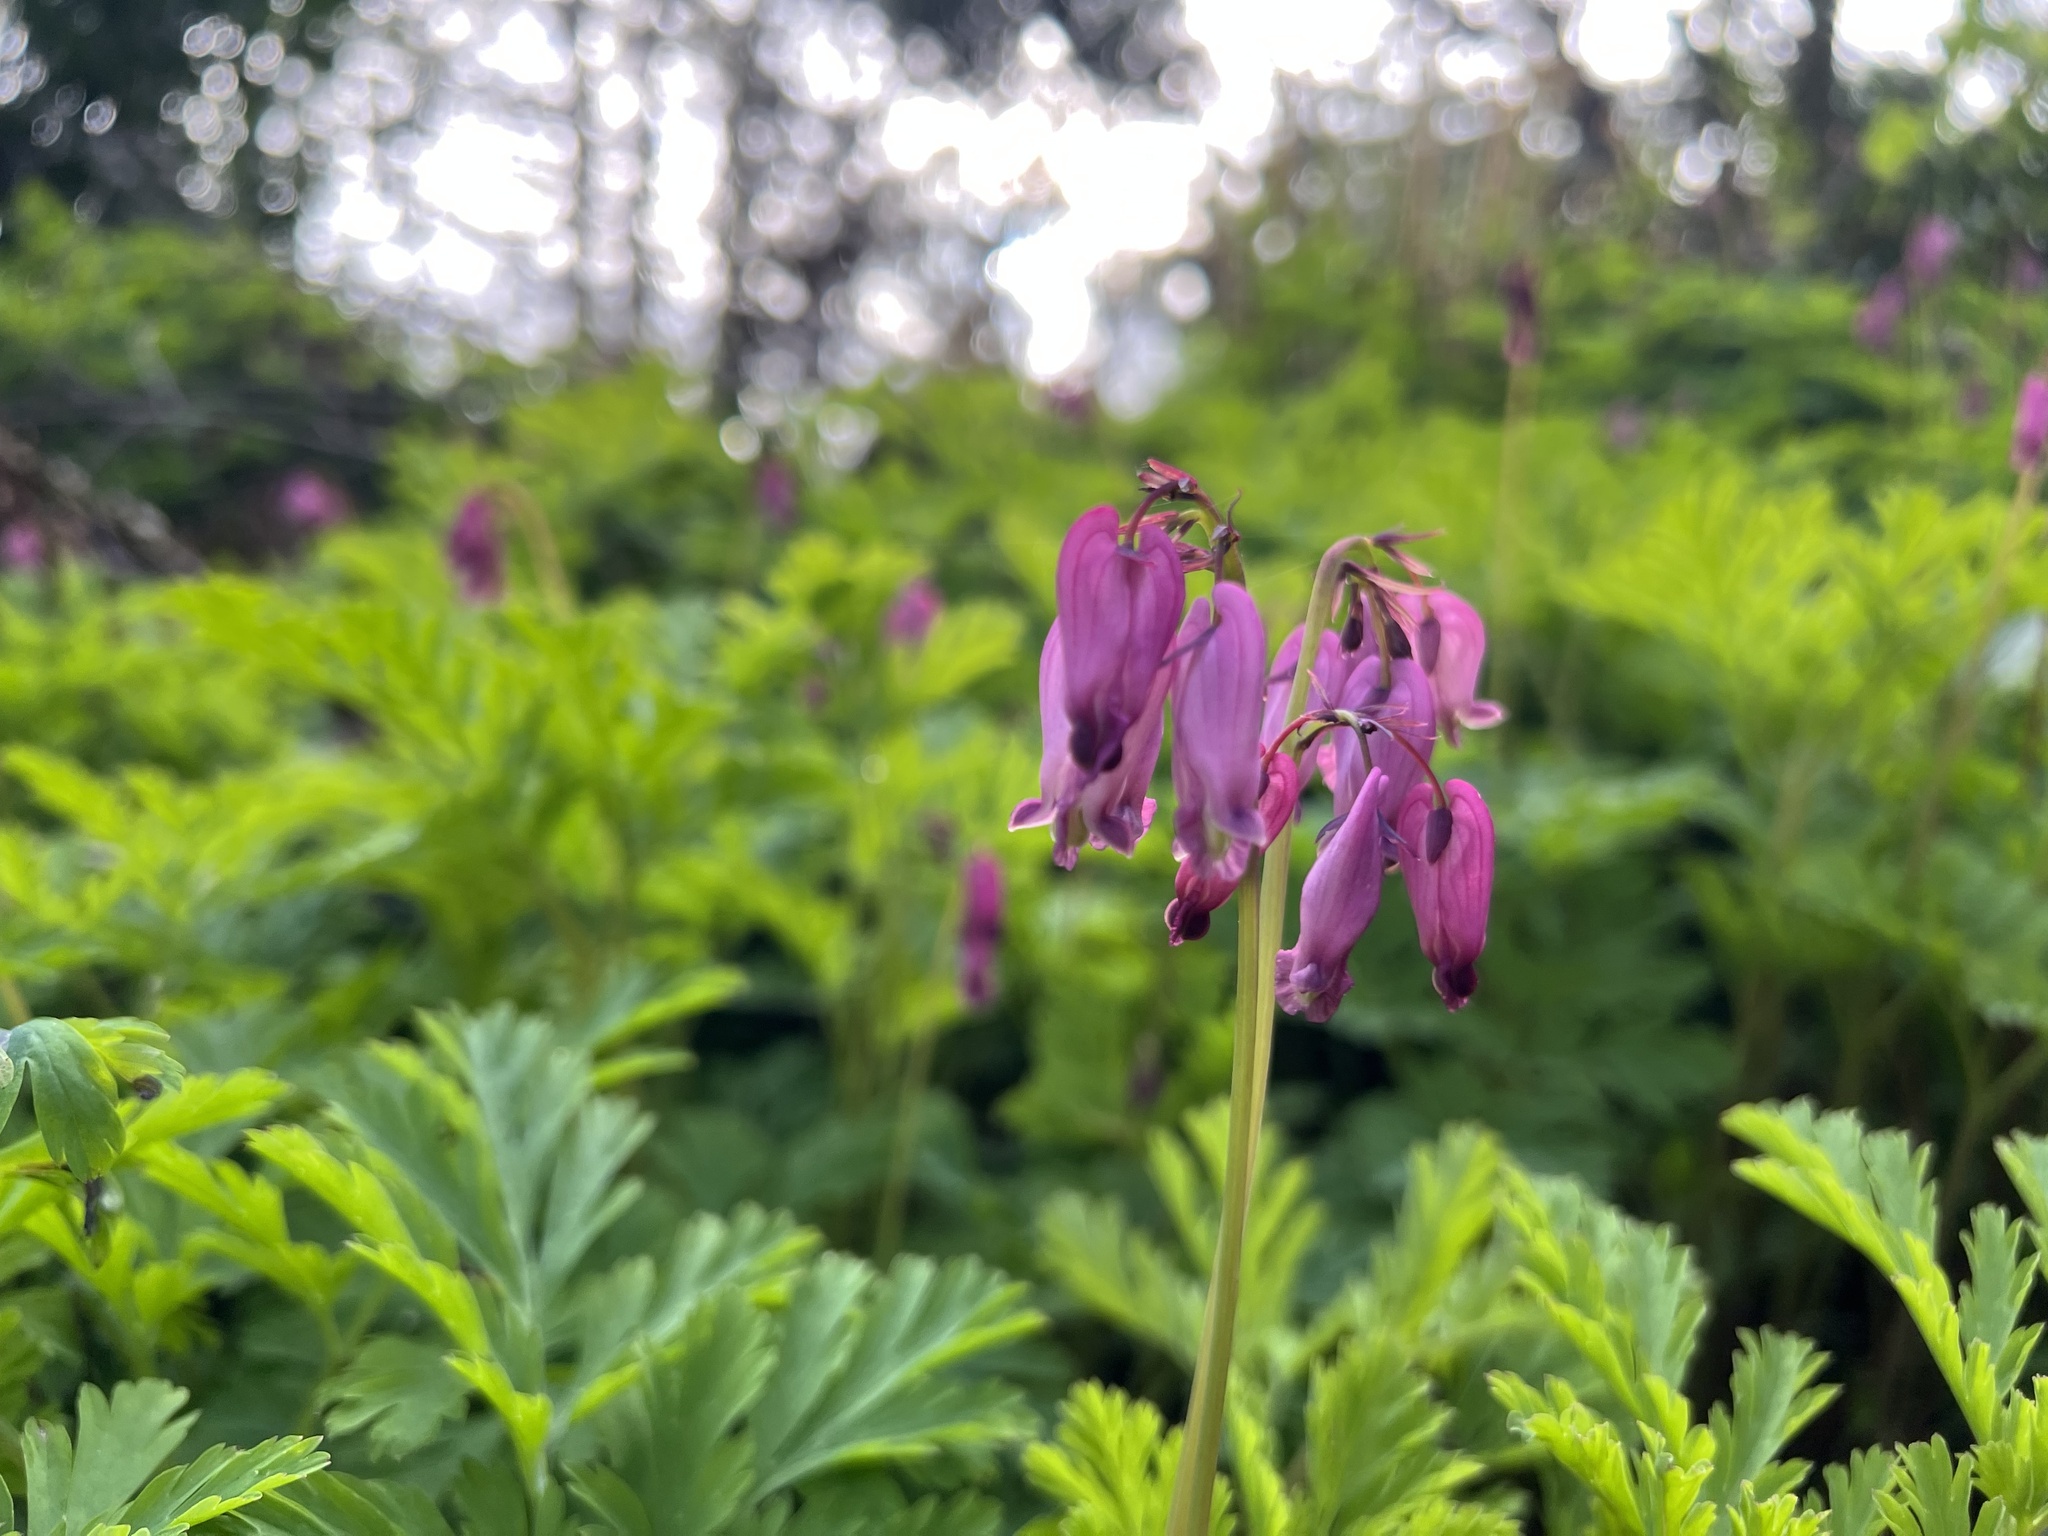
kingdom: Plantae
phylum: Tracheophyta
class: Magnoliopsida
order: Ranunculales
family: Papaveraceae
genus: Dicentra
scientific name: Dicentra formosa
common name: Bleeding-heart
